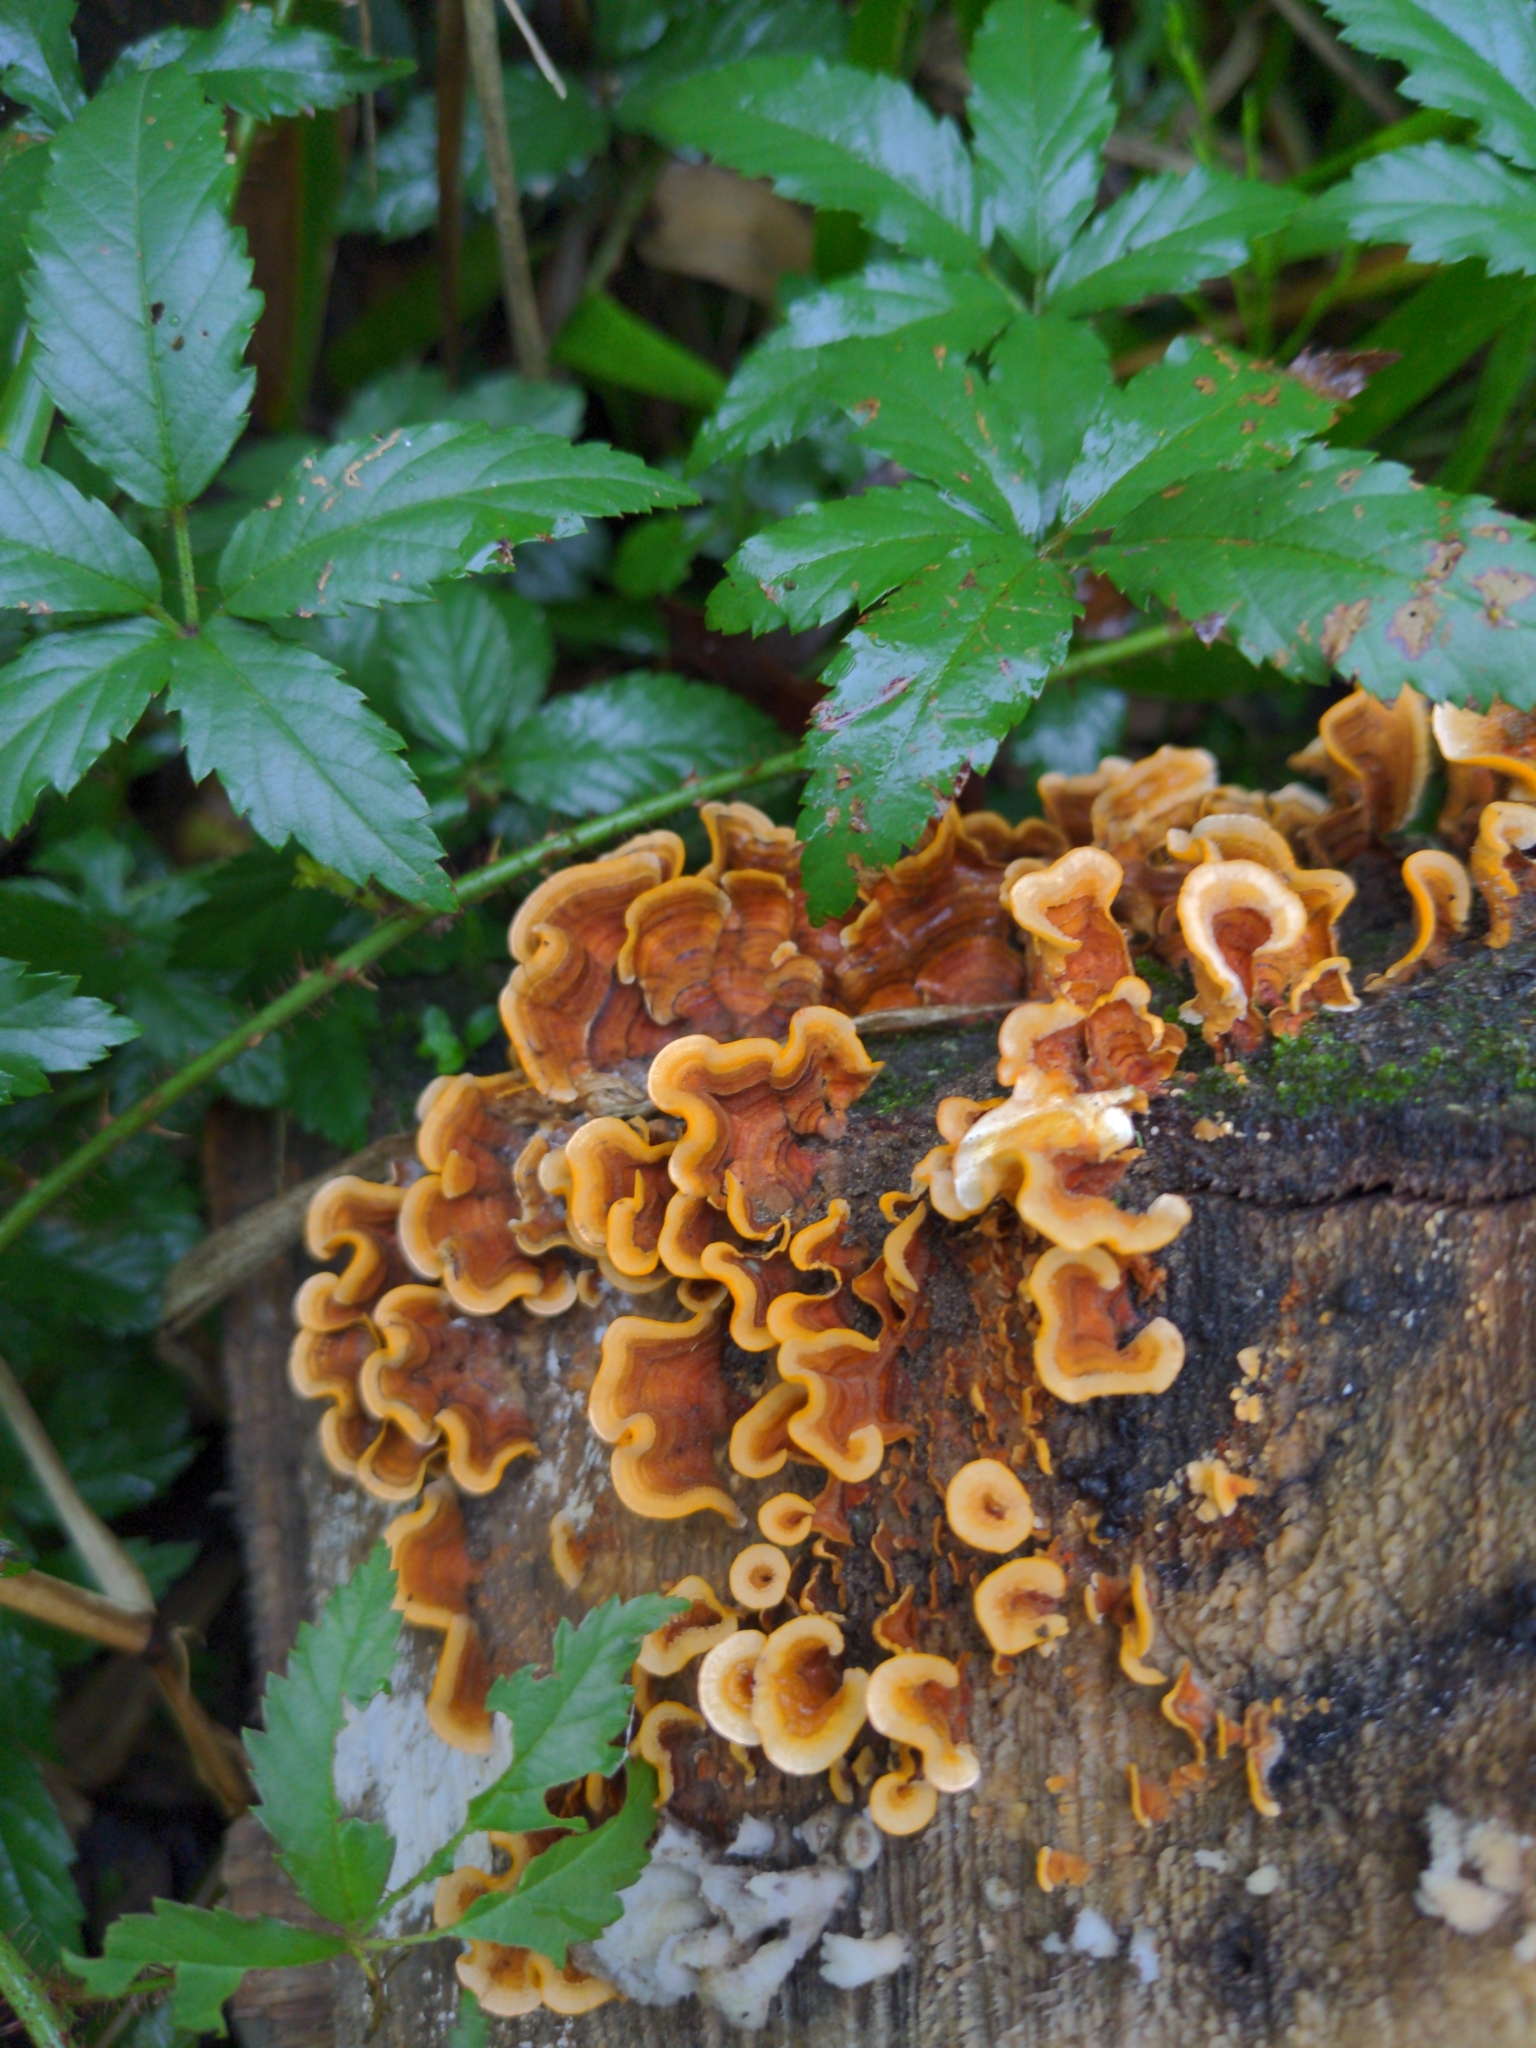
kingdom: Fungi
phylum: Basidiomycota
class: Agaricomycetes
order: Russulales
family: Stereaceae
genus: Stereum
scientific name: Stereum complicatum
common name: Crowded parchment
